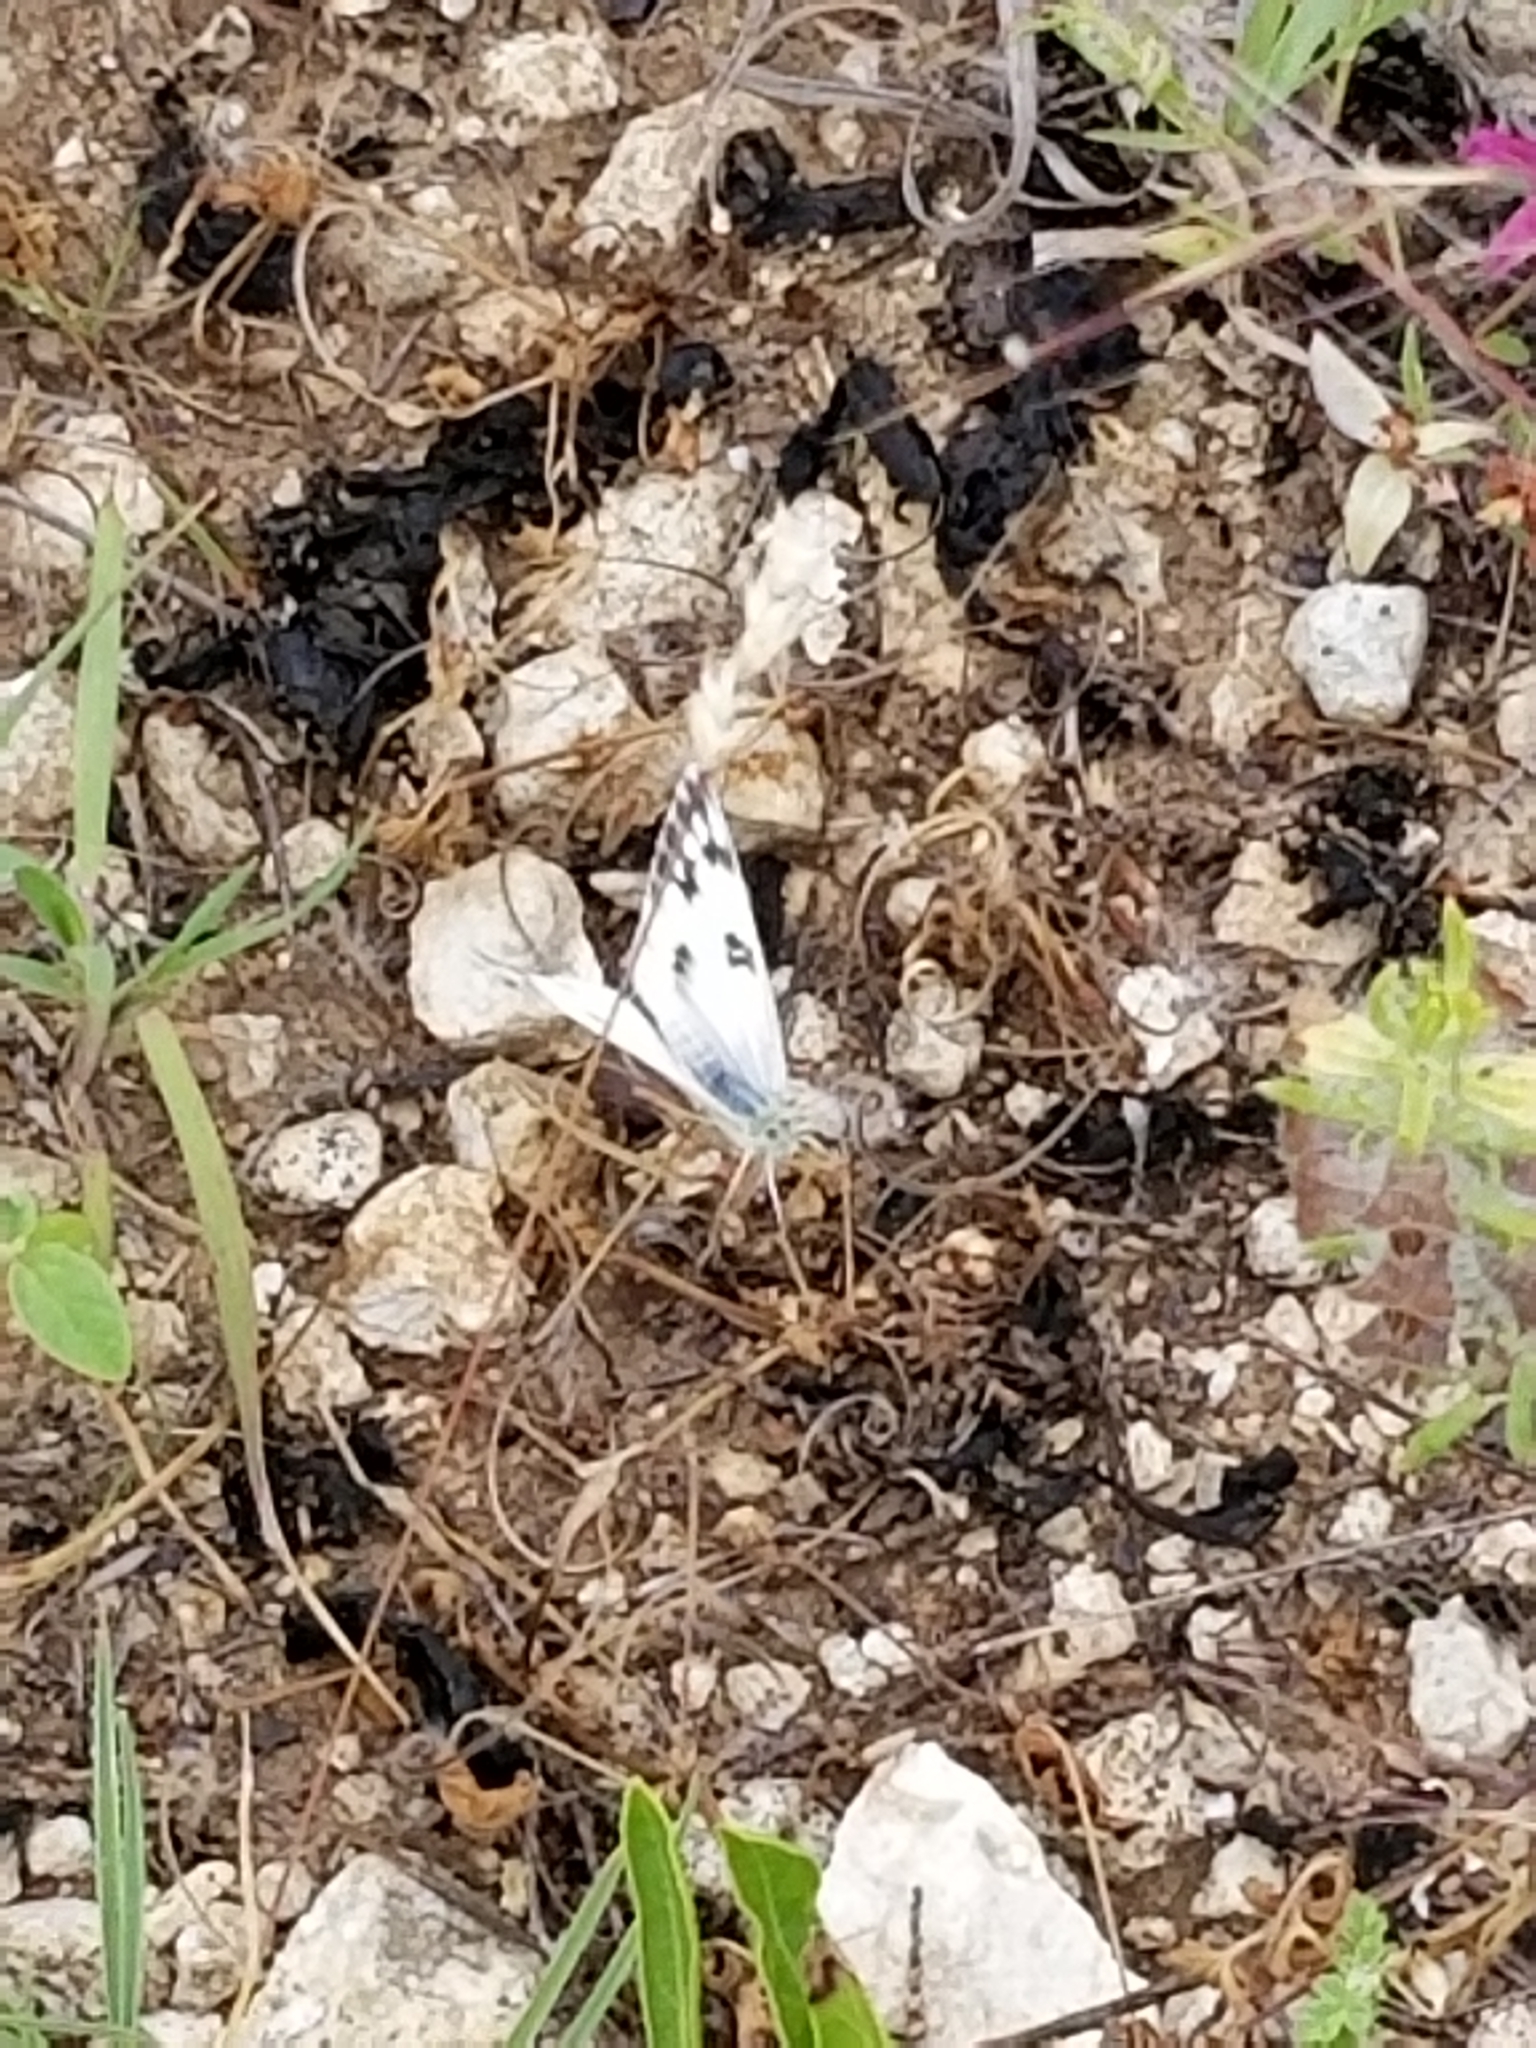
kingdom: Animalia
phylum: Arthropoda
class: Insecta
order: Lepidoptera
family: Pieridae
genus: Pontia
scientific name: Pontia protodice
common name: Checkered white
